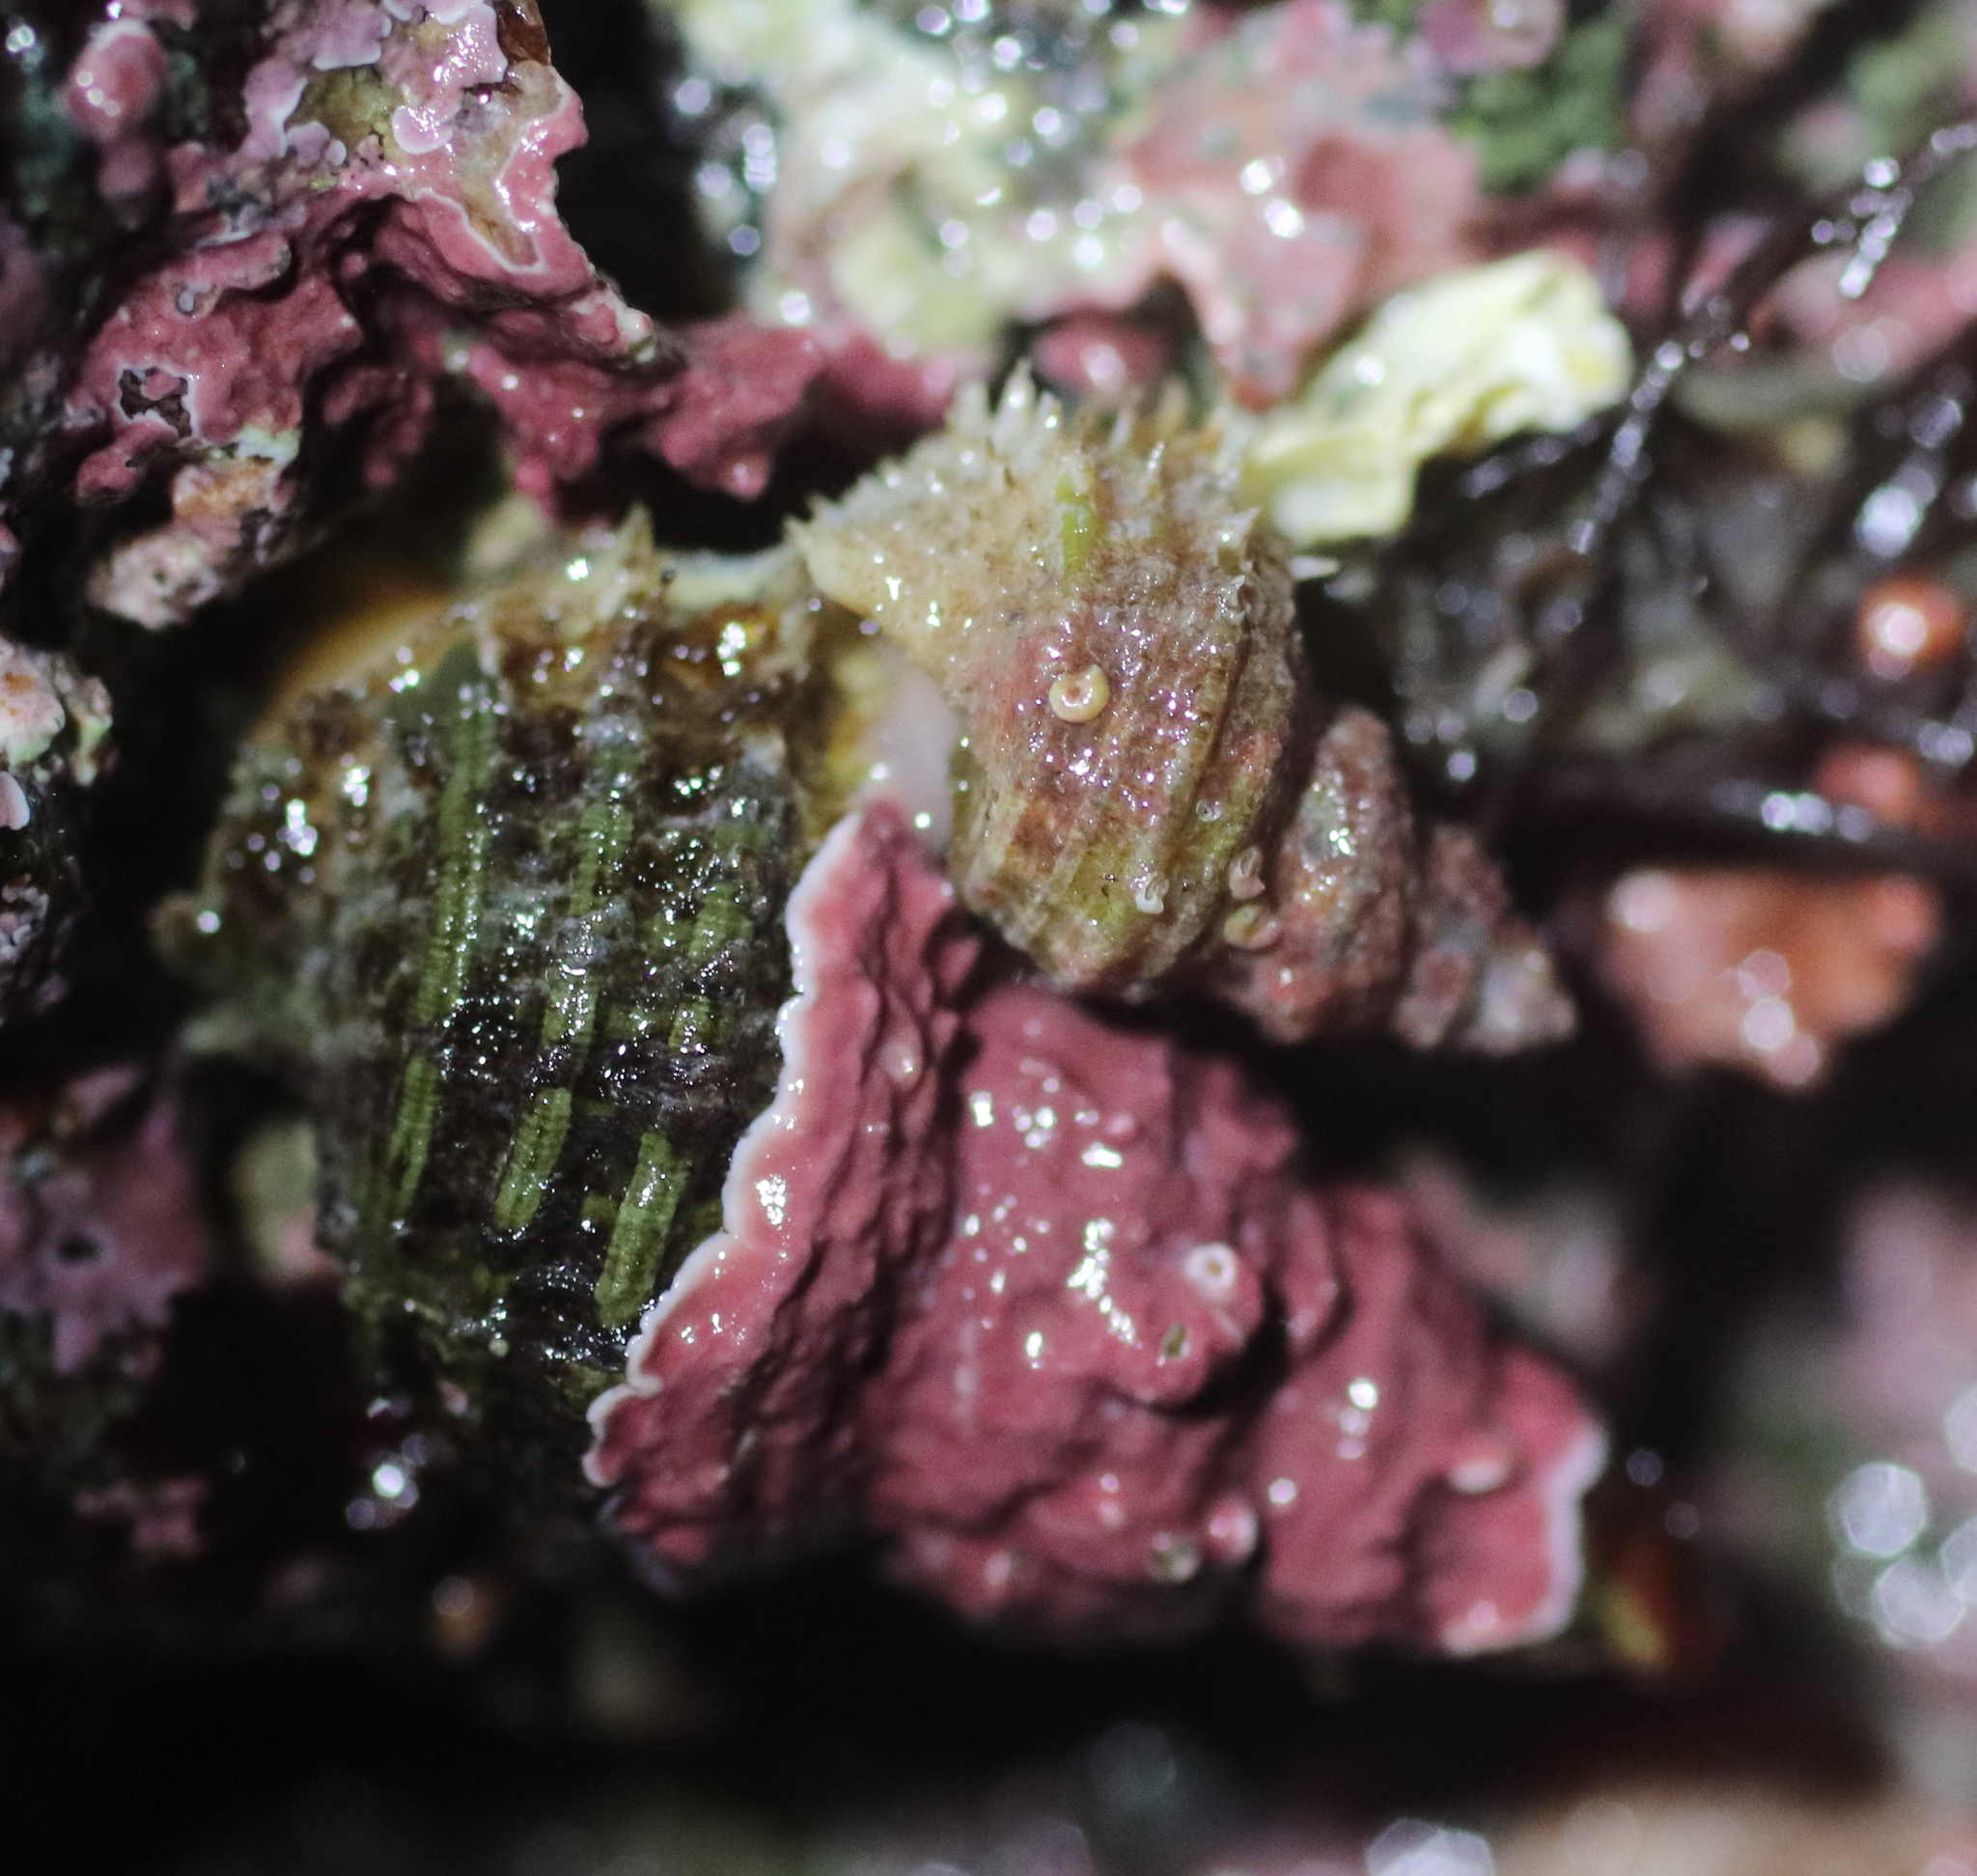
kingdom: Animalia
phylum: Mollusca
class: Gastropoda
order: Littorinimorpha
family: Capulidae
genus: Trichotropis
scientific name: Trichotropis cancellata
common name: Cancellate hairysnail
